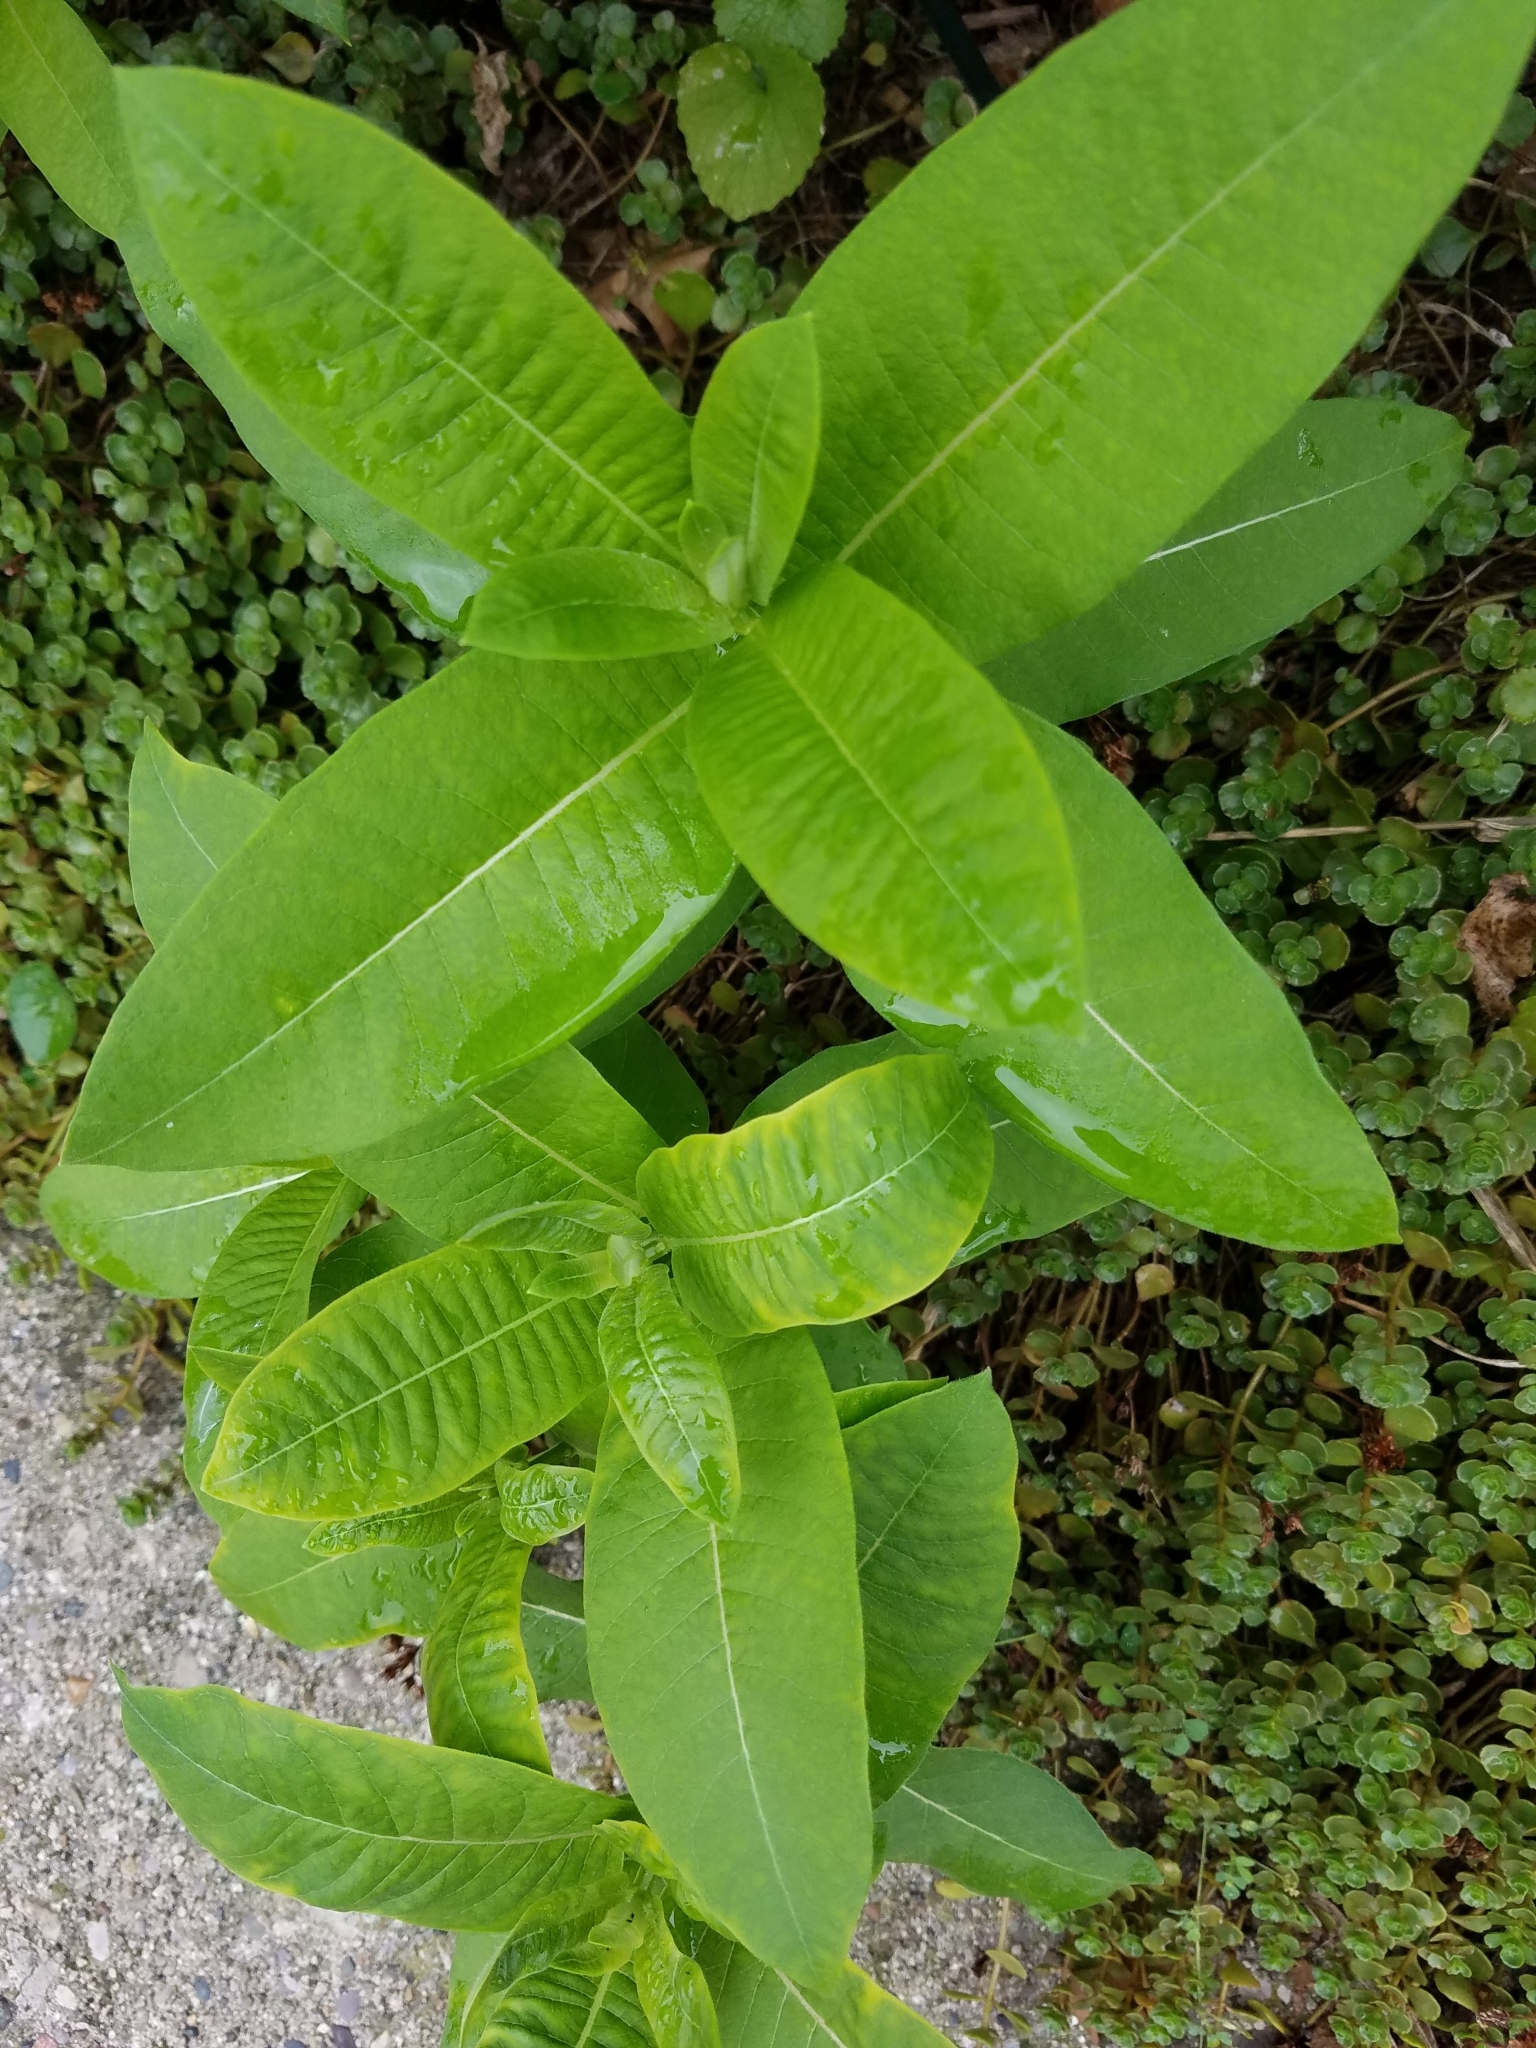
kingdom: Plantae
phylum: Tracheophyta
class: Magnoliopsida
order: Gentianales
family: Apocynaceae
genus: Asclepias
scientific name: Asclepias syriaca
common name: Common milkweed
